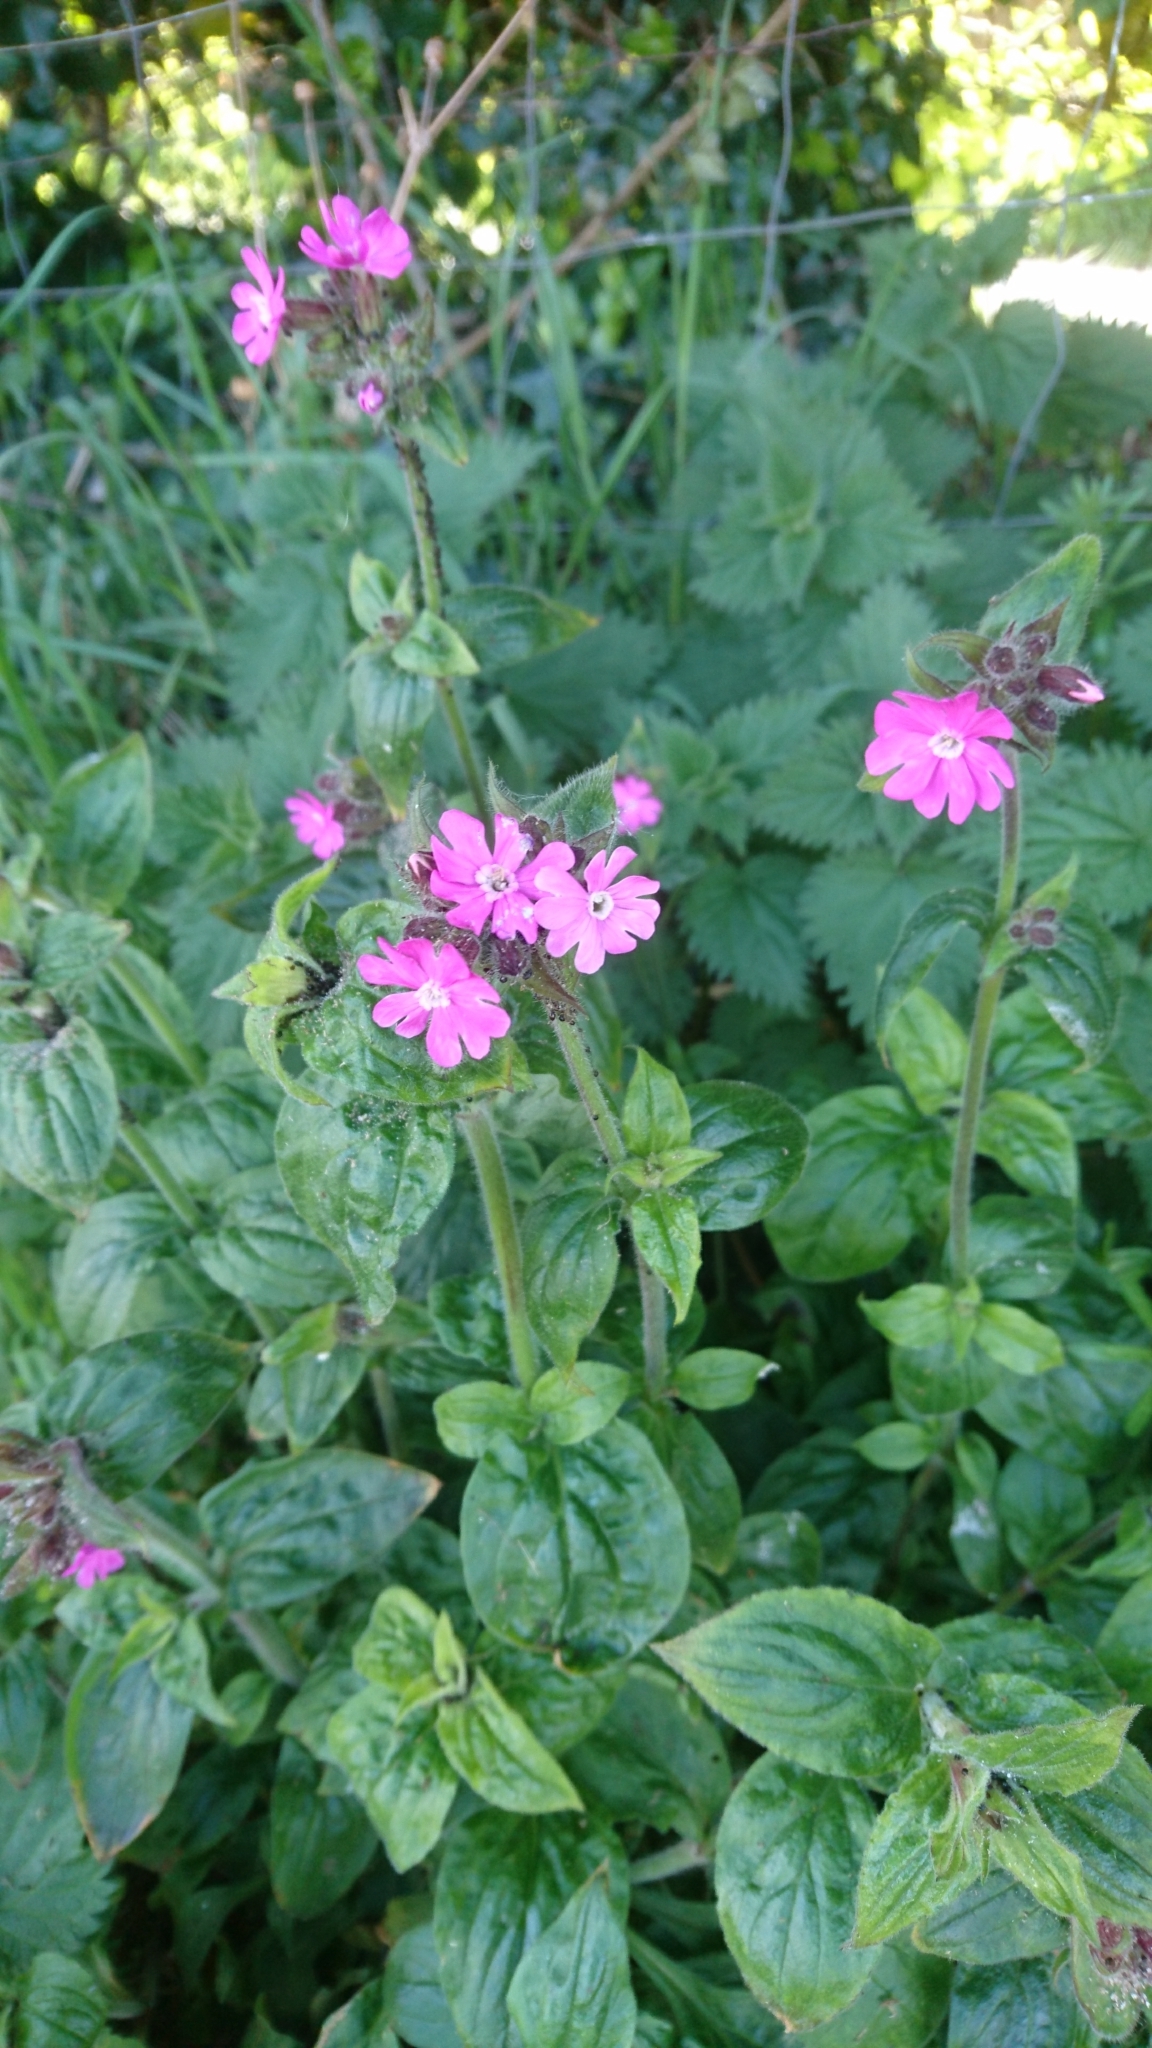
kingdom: Plantae
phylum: Tracheophyta
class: Magnoliopsida
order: Caryophyllales
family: Caryophyllaceae
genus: Silene
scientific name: Silene dioica
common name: Red campion
